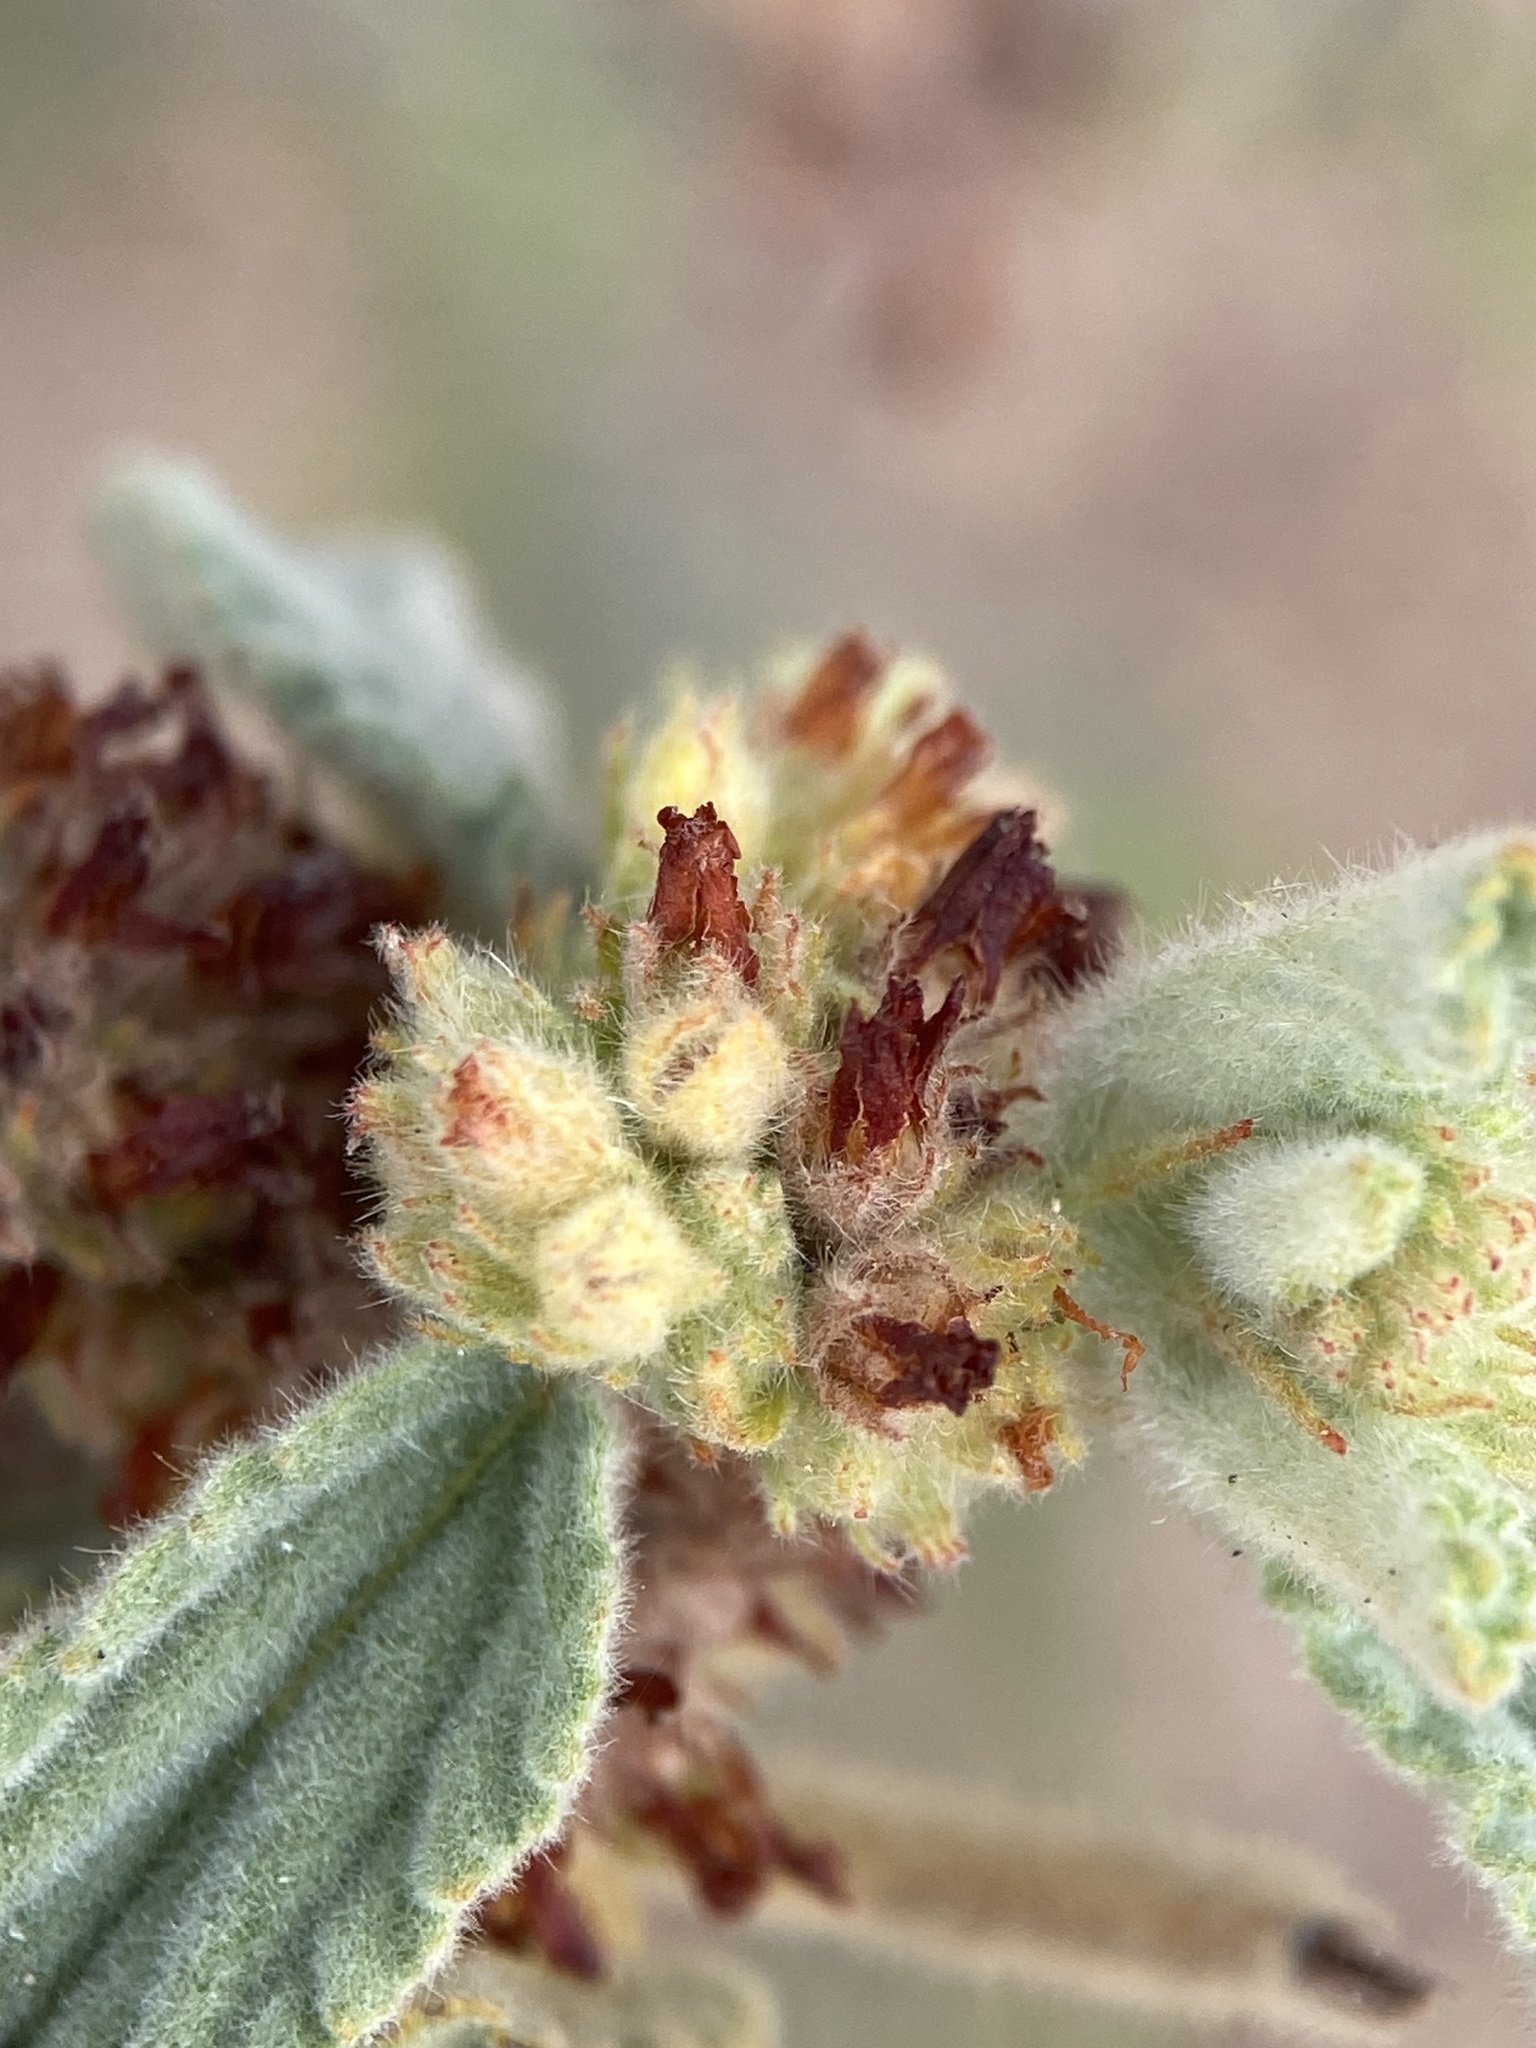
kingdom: Plantae
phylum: Tracheophyta
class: Magnoliopsida
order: Malvales
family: Malvaceae
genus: Waltheria
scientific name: Waltheria indica
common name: Leather-coat
